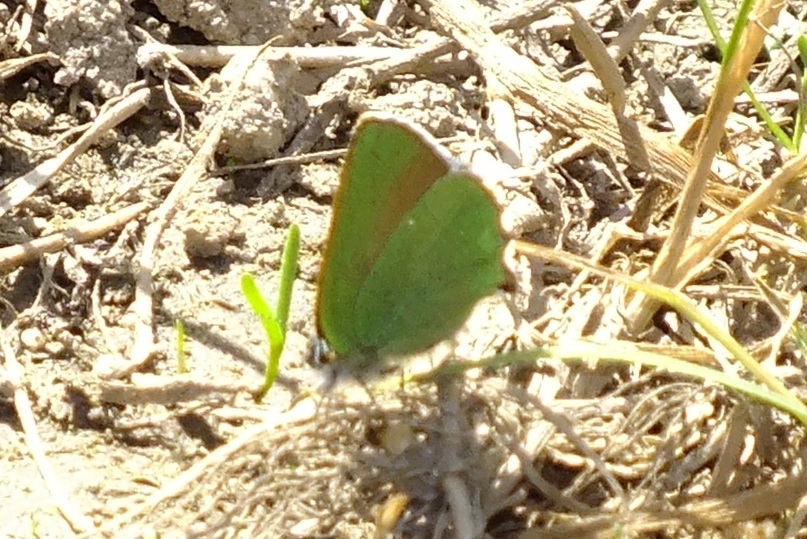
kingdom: Animalia
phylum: Arthropoda
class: Insecta
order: Lepidoptera
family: Lycaenidae
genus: Callophrys
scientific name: Callophrys rubi
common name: Green hairstreak
